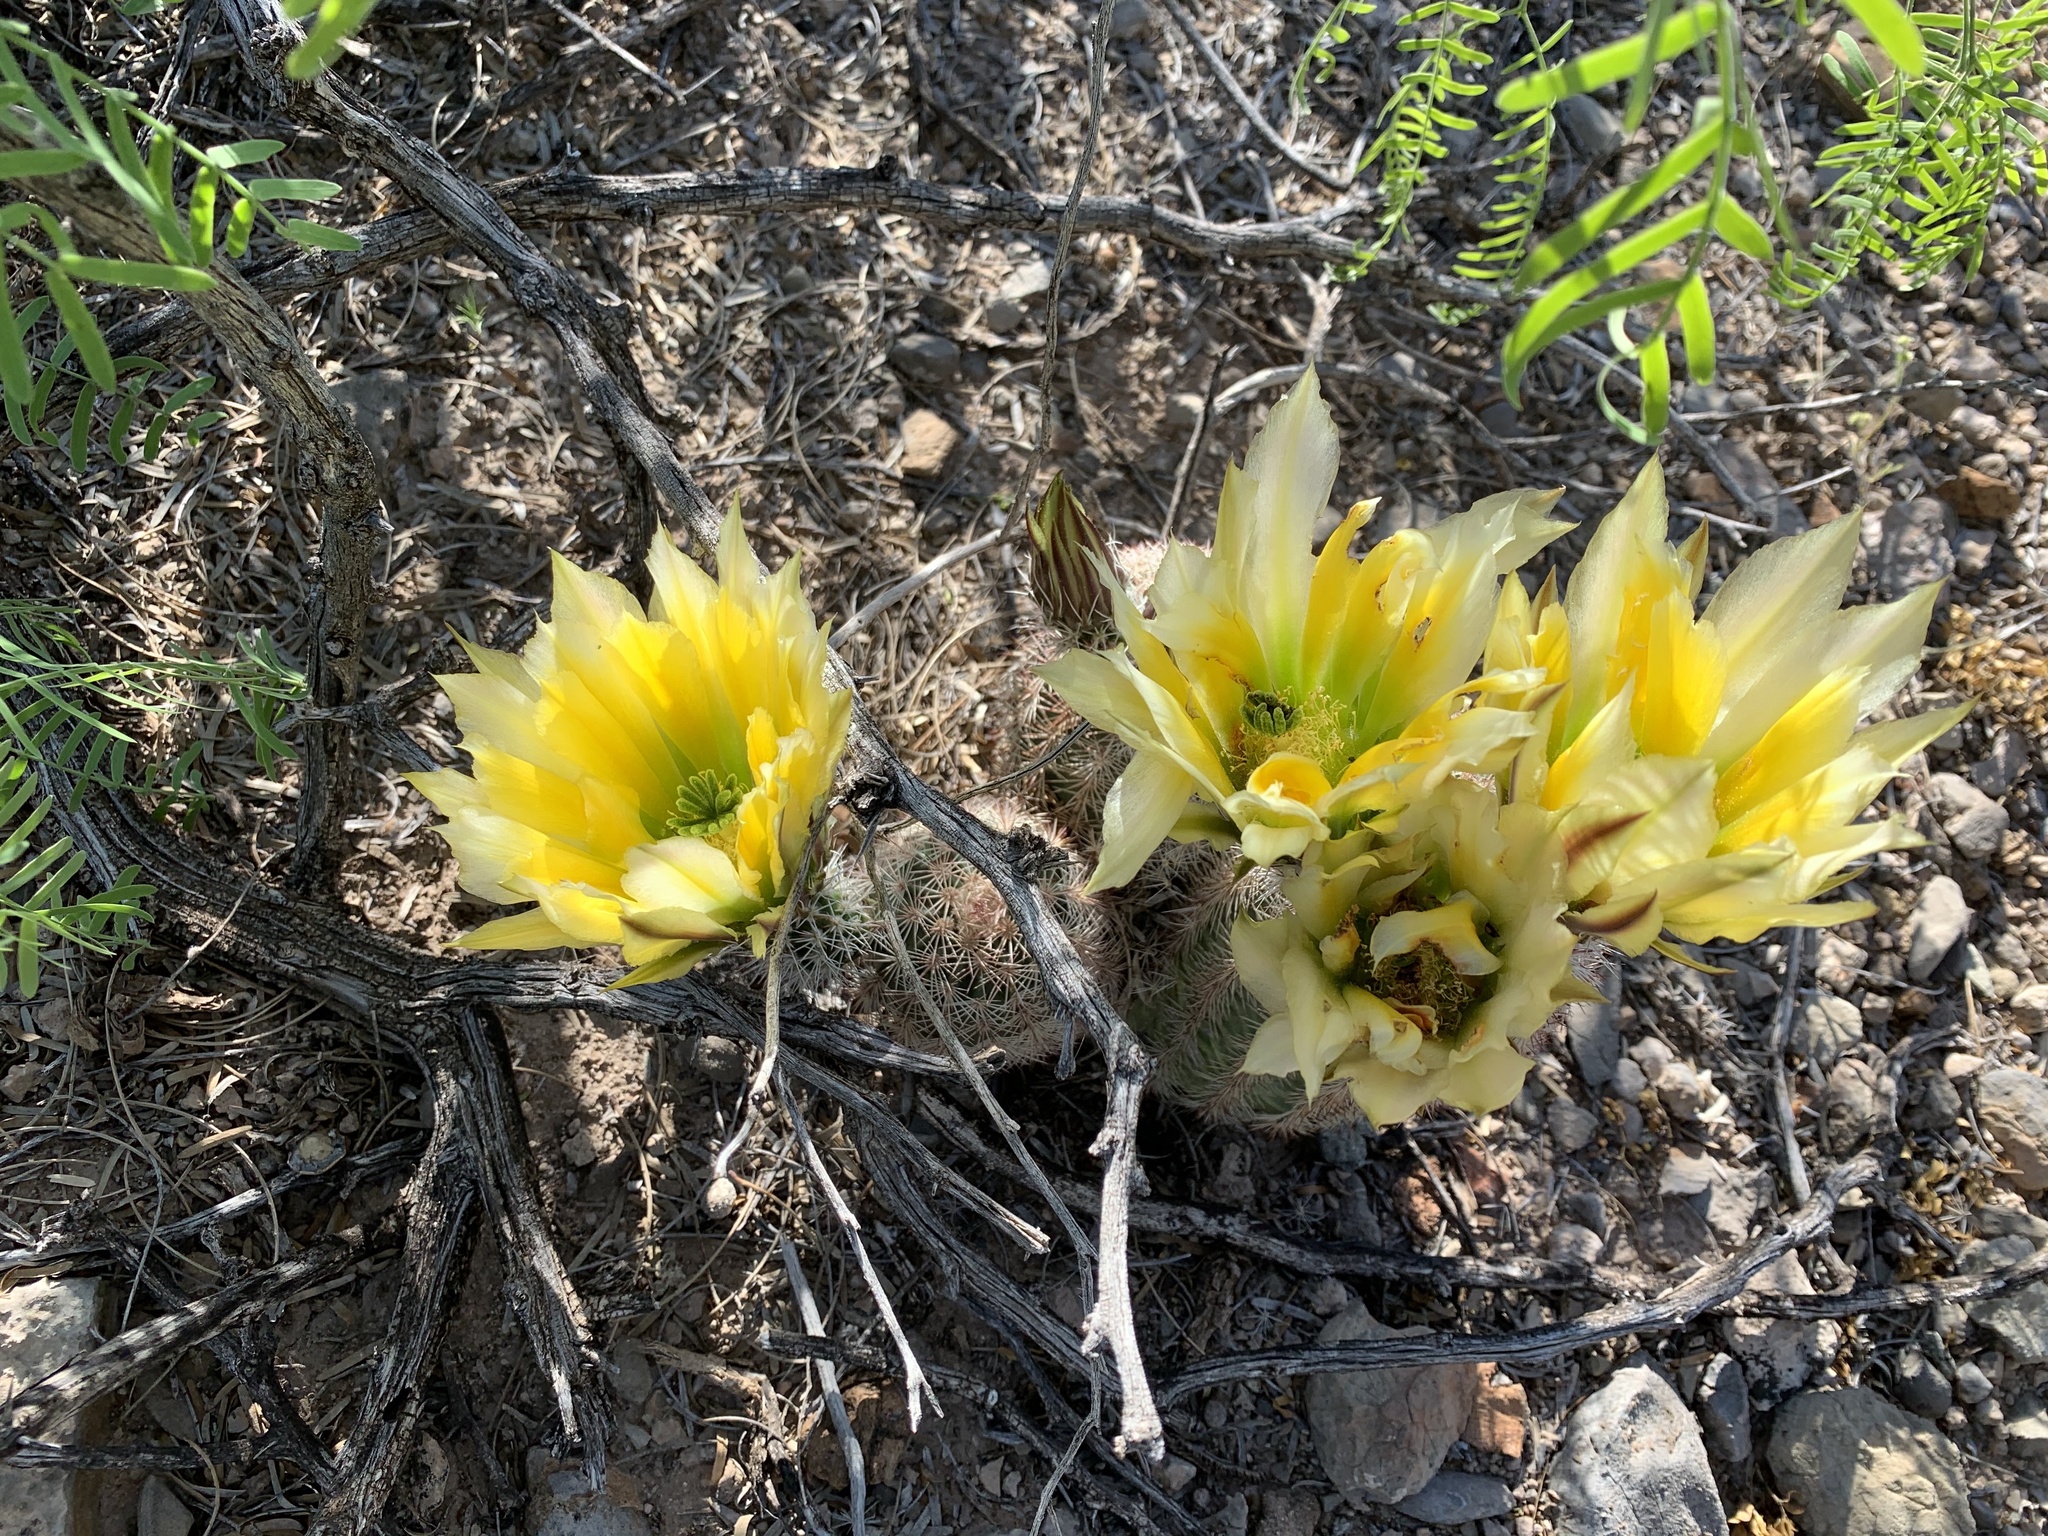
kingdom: Plantae
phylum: Tracheophyta
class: Magnoliopsida
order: Caryophyllales
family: Cactaceae
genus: Echinocereus
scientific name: Echinocereus dasyacanthus
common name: Spiny hedgehog cactus
